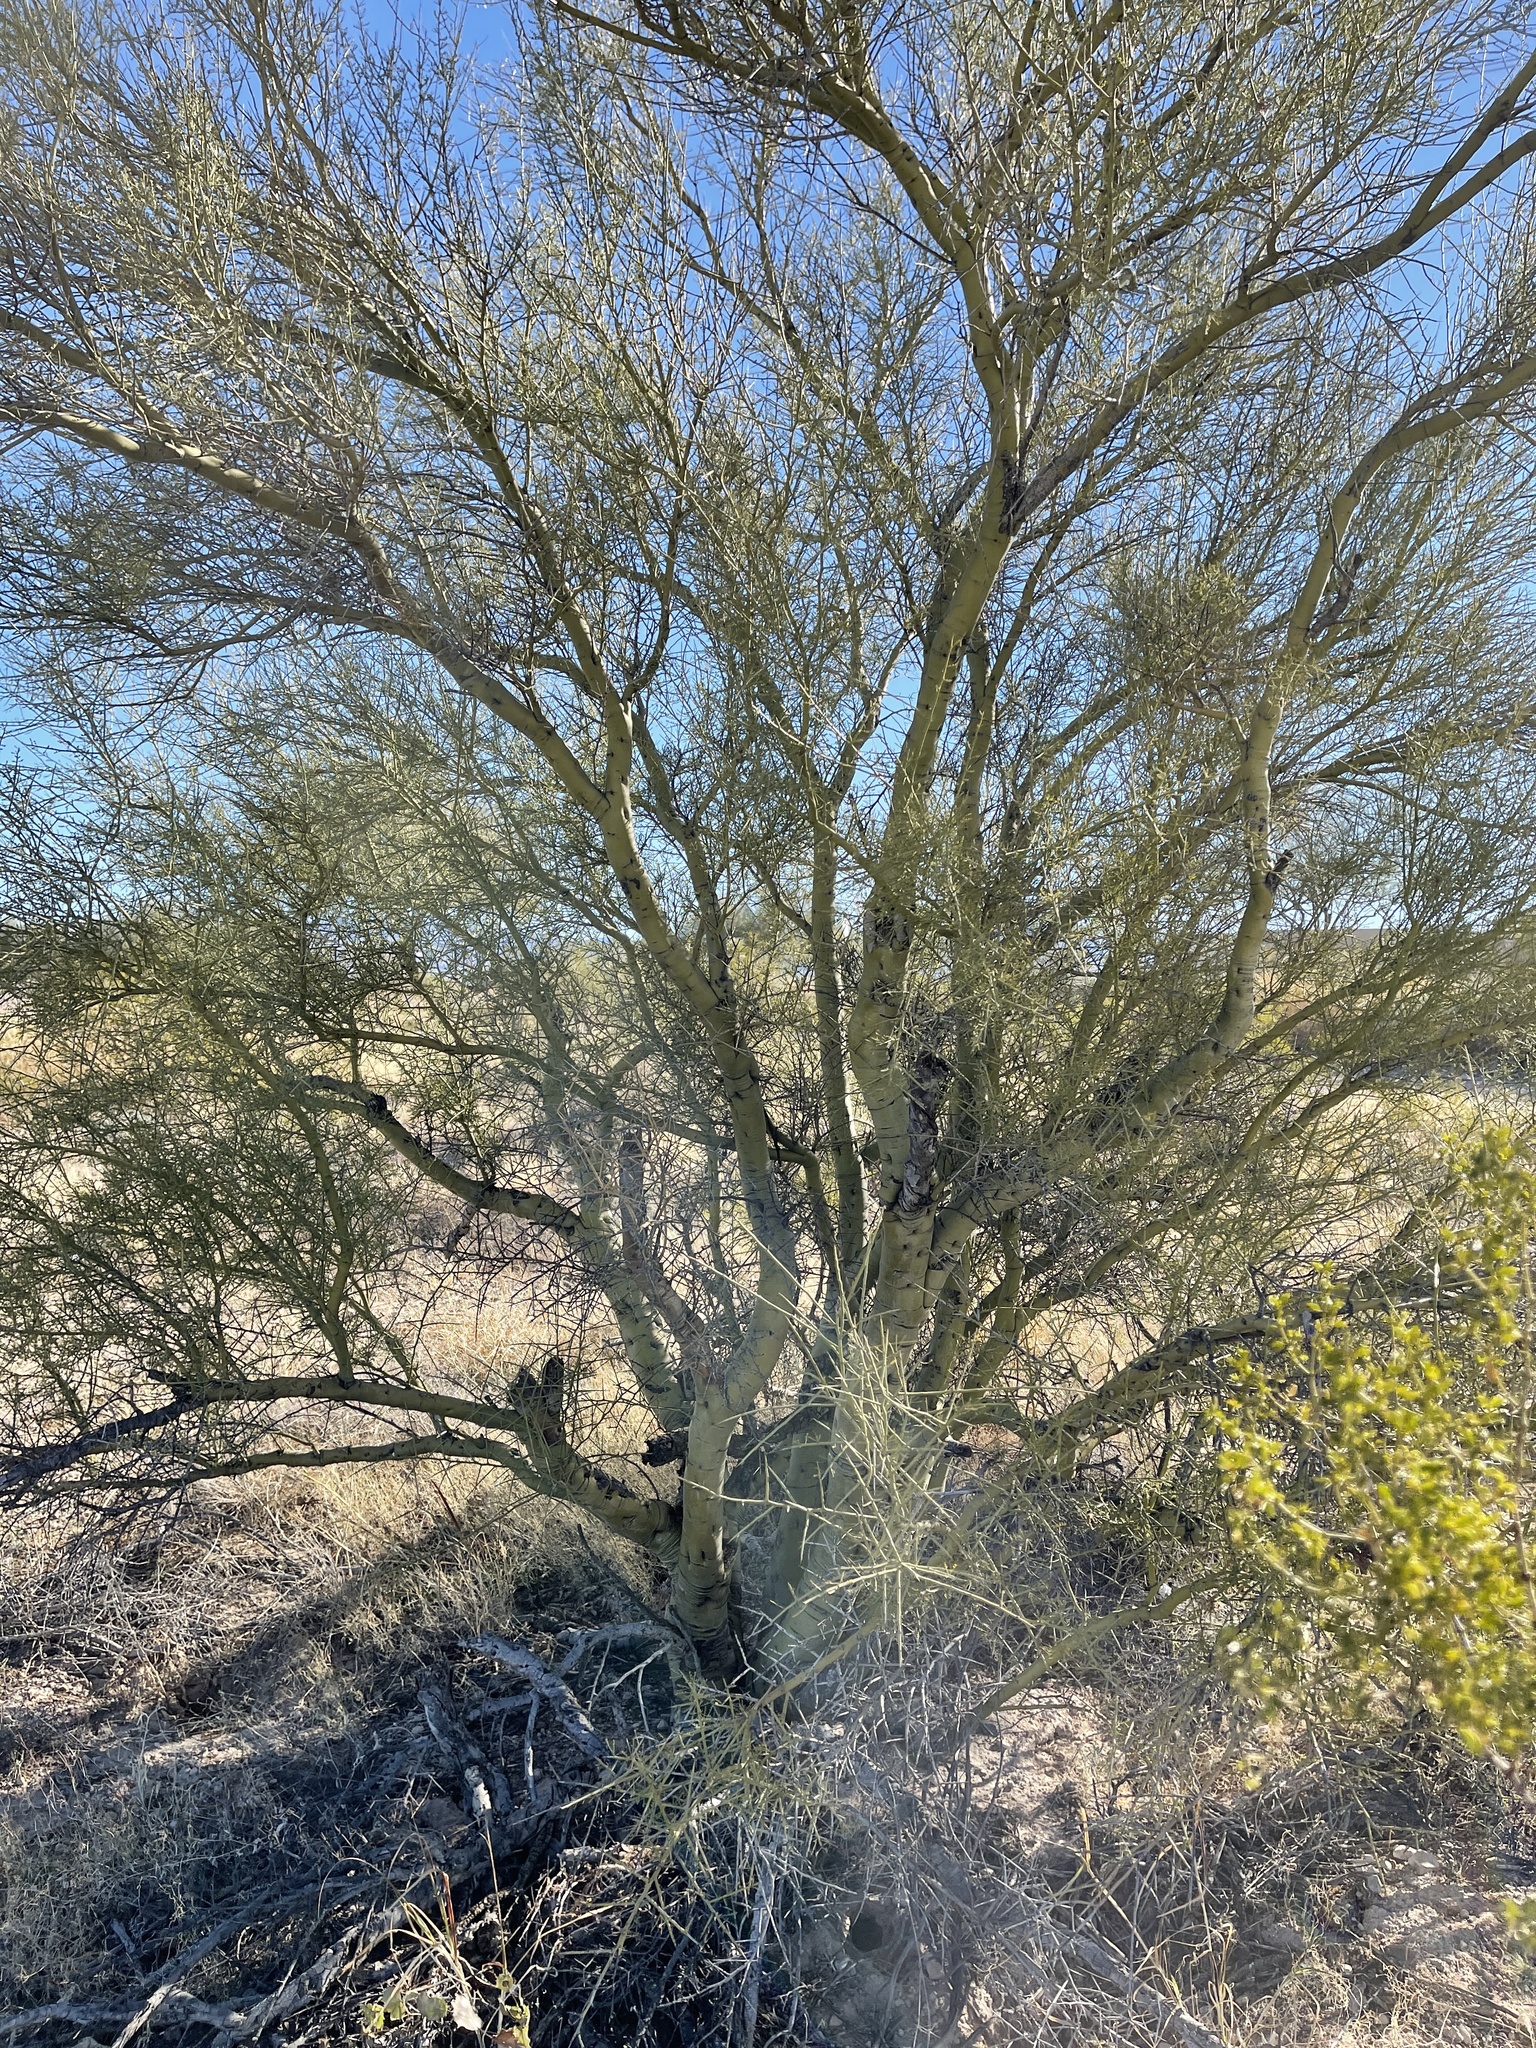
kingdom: Plantae
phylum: Tracheophyta
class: Magnoliopsida
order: Fabales
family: Fabaceae
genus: Parkinsonia
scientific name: Parkinsonia microphylla
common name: Yellow paloverde
